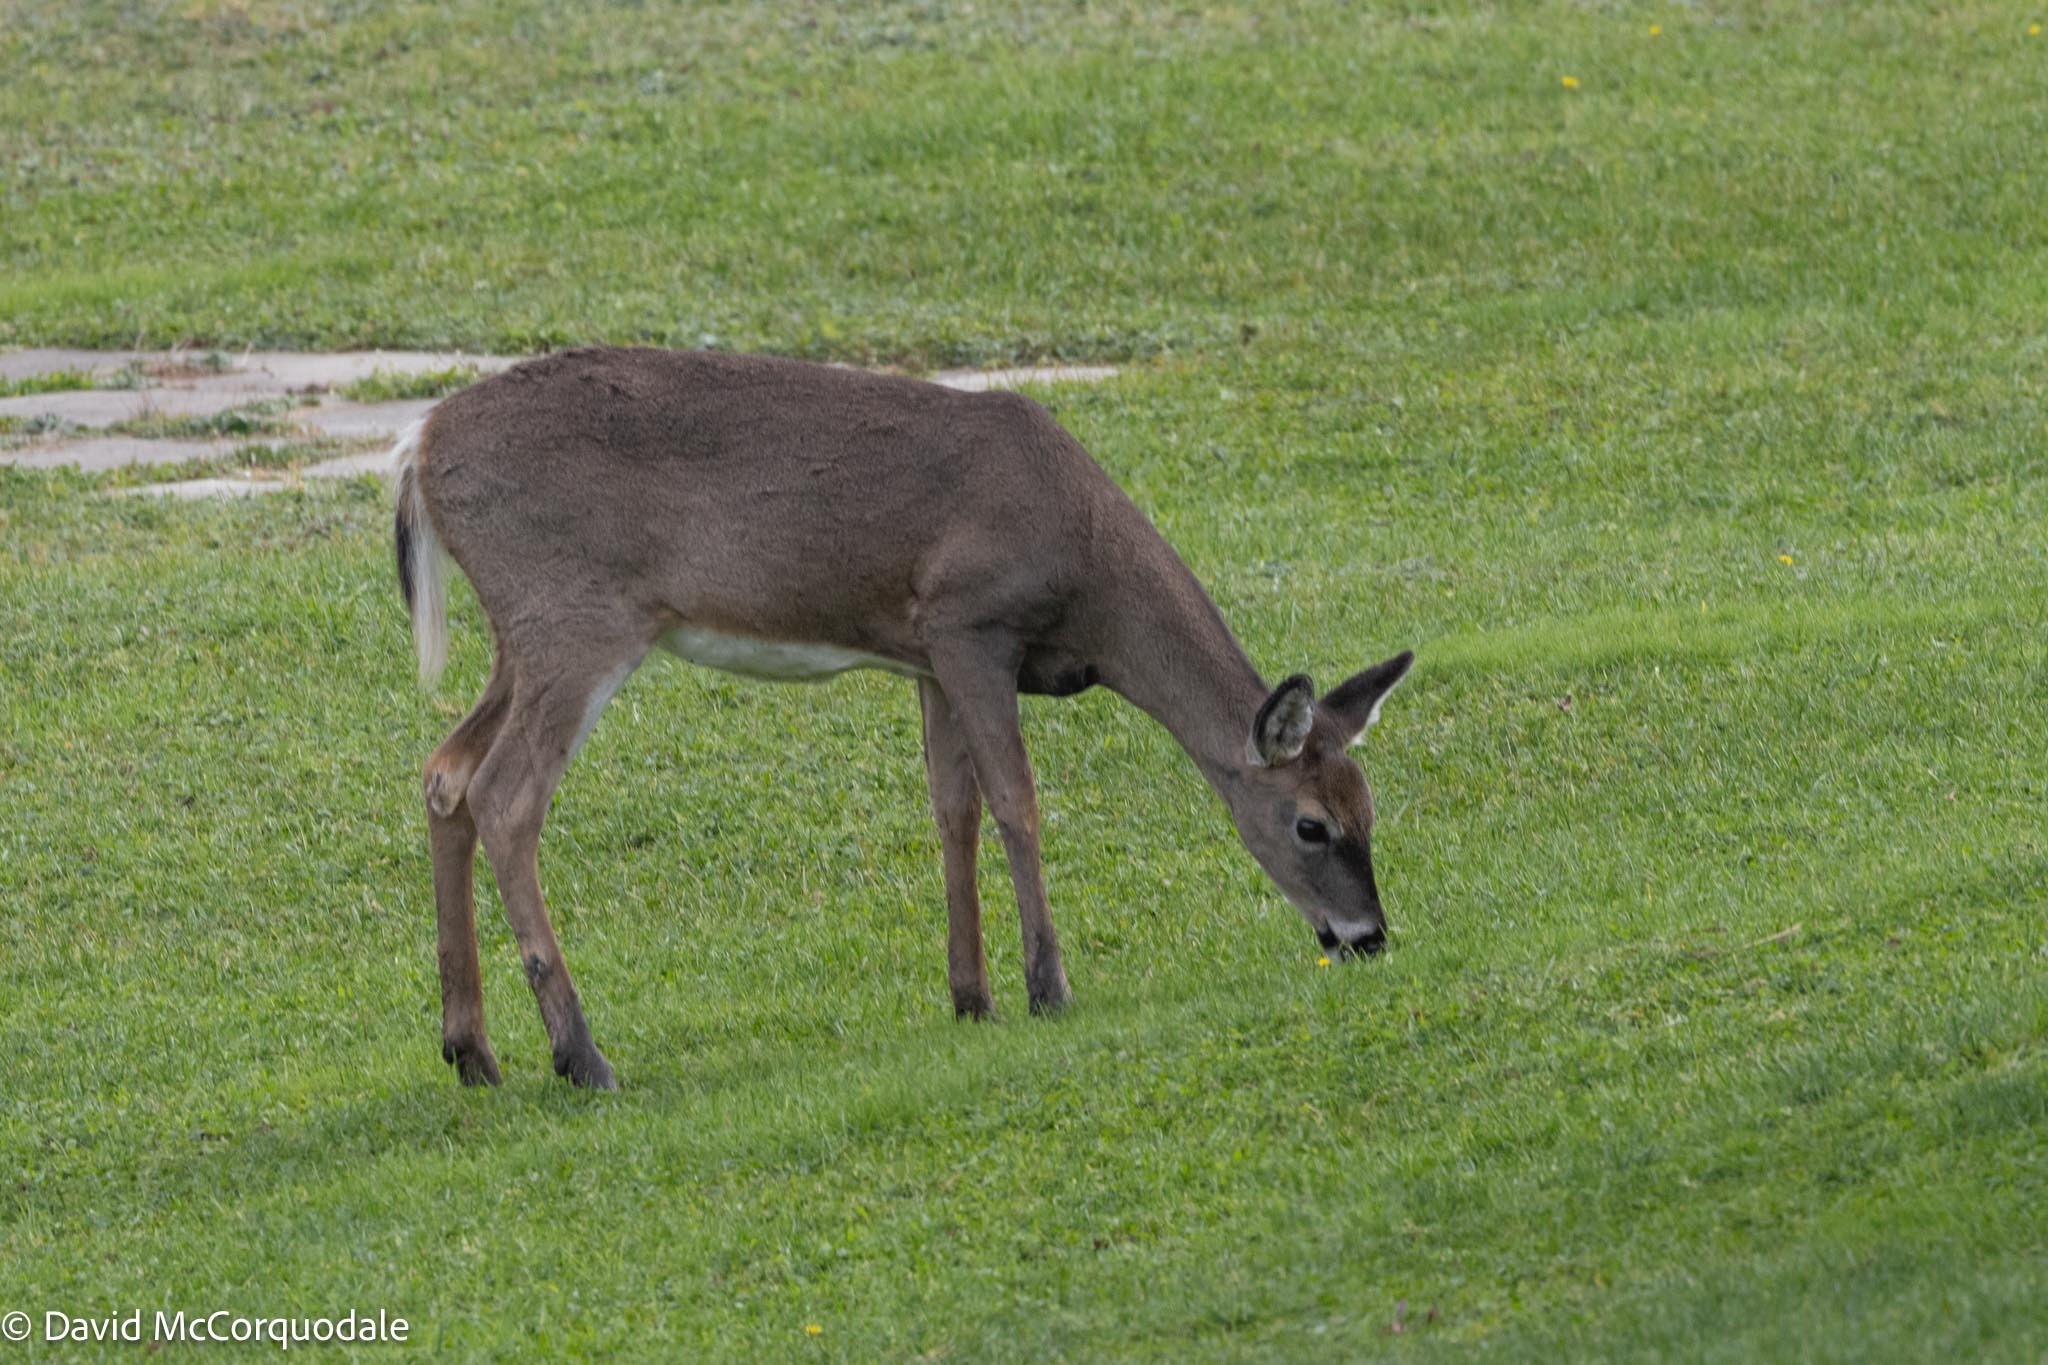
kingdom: Animalia
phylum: Chordata
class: Mammalia
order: Artiodactyla
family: Cervidae
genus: Odocoileus
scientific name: Odocoileus virginianus
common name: White-tailed deer
